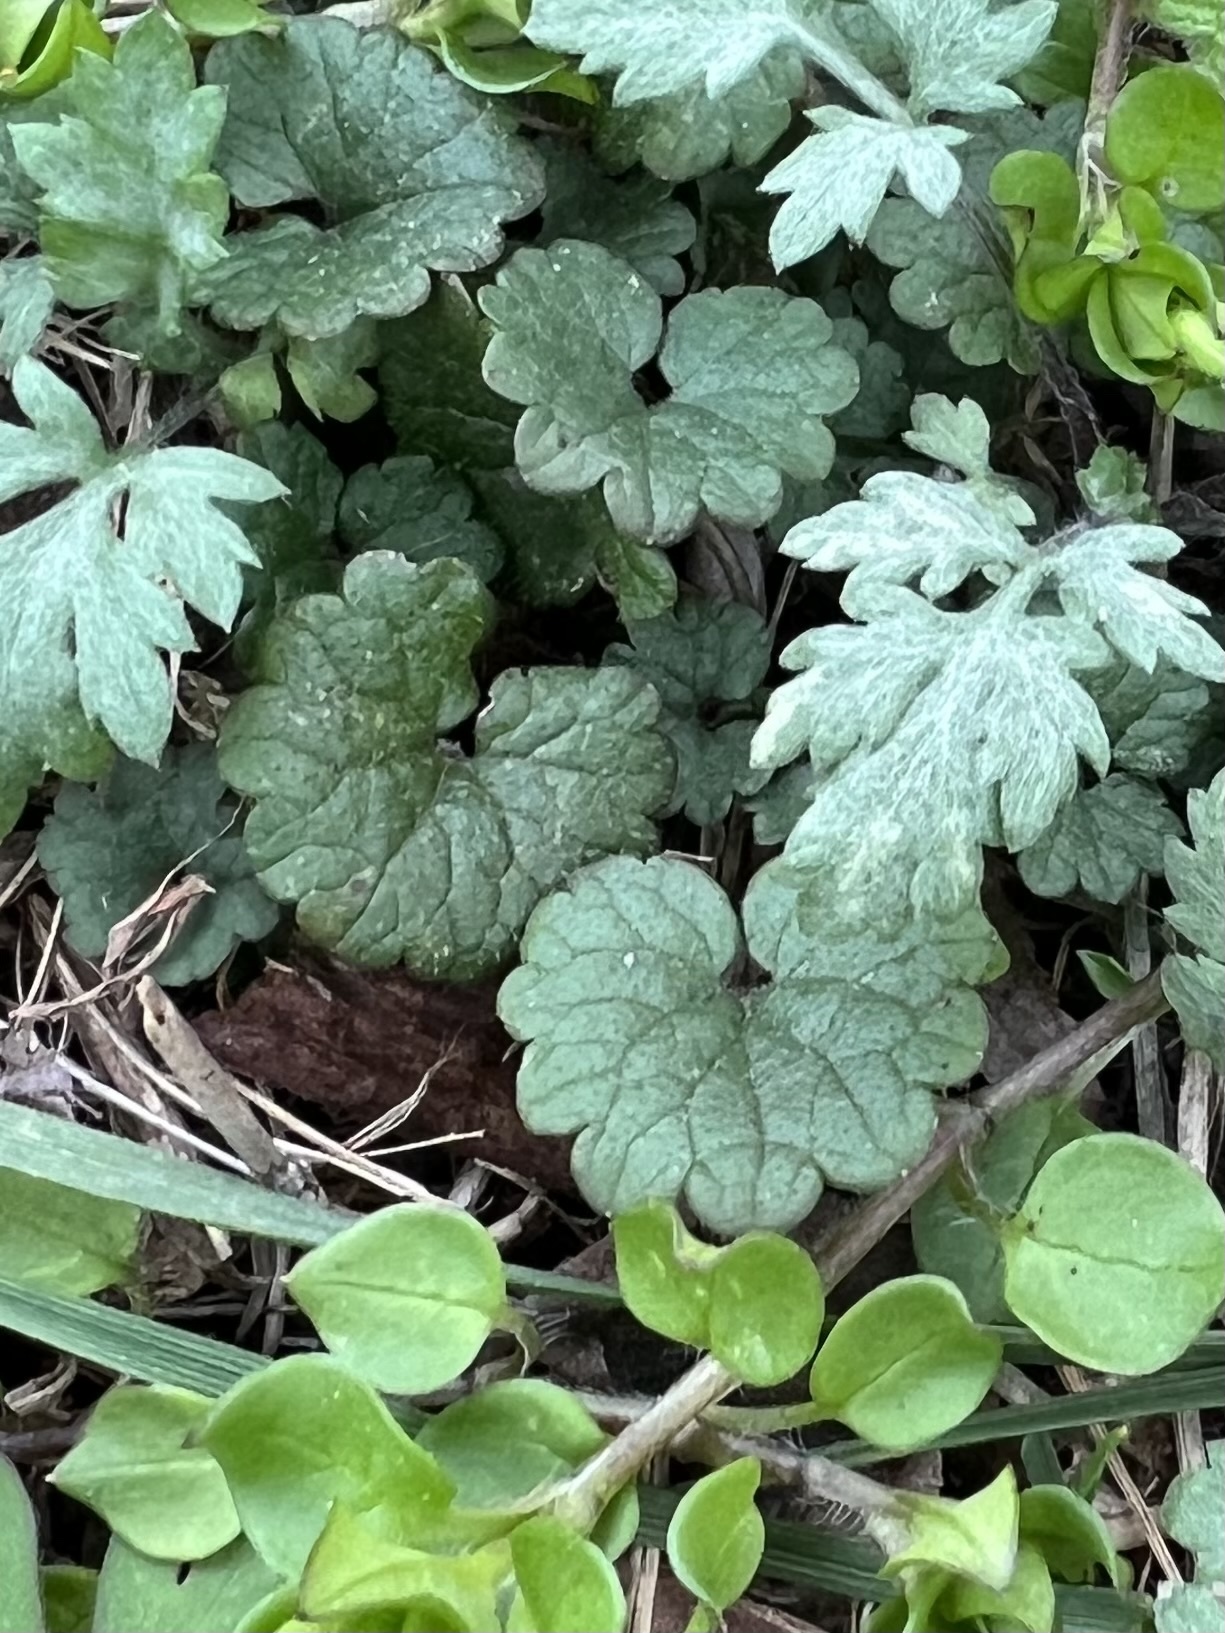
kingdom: Plantae
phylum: Tracheophyta
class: Magnoliopsida
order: Lamiales
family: Lamiaceae
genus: Glechoma
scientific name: Glechoma hederacea
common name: Ground ivy
